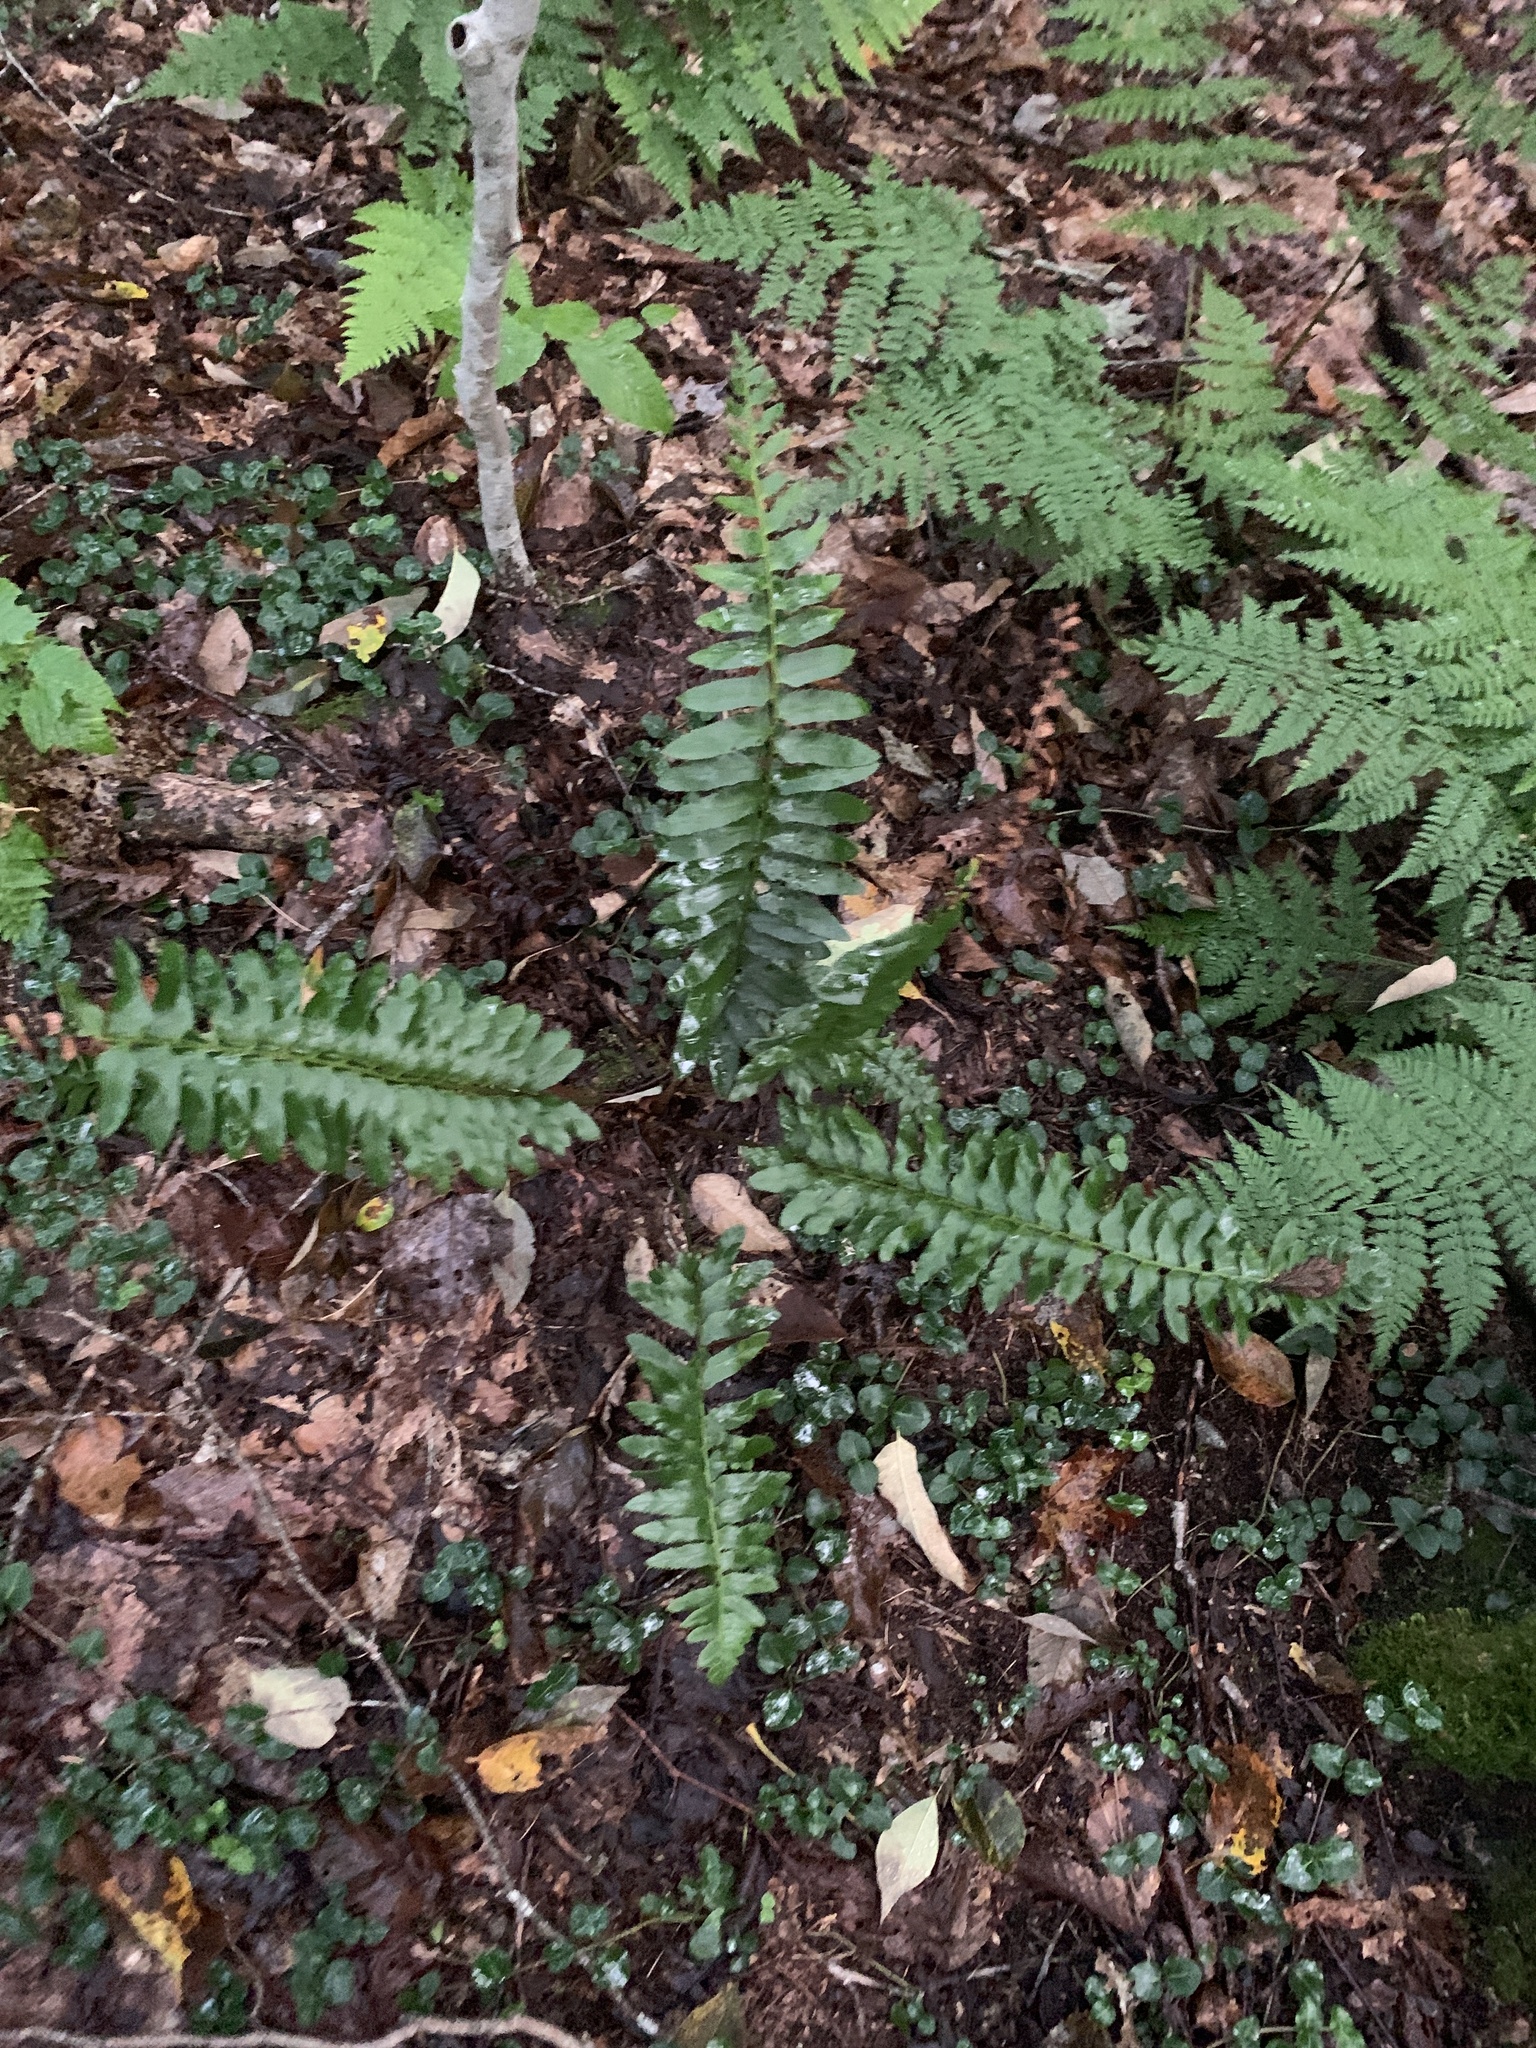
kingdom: Plantae
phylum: Tracheophyta
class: Polypodiopsida
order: Polypodiales
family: Dryopteridaceae
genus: Polystichum
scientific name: Polystichum acrostichoides
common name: Christmas fern
